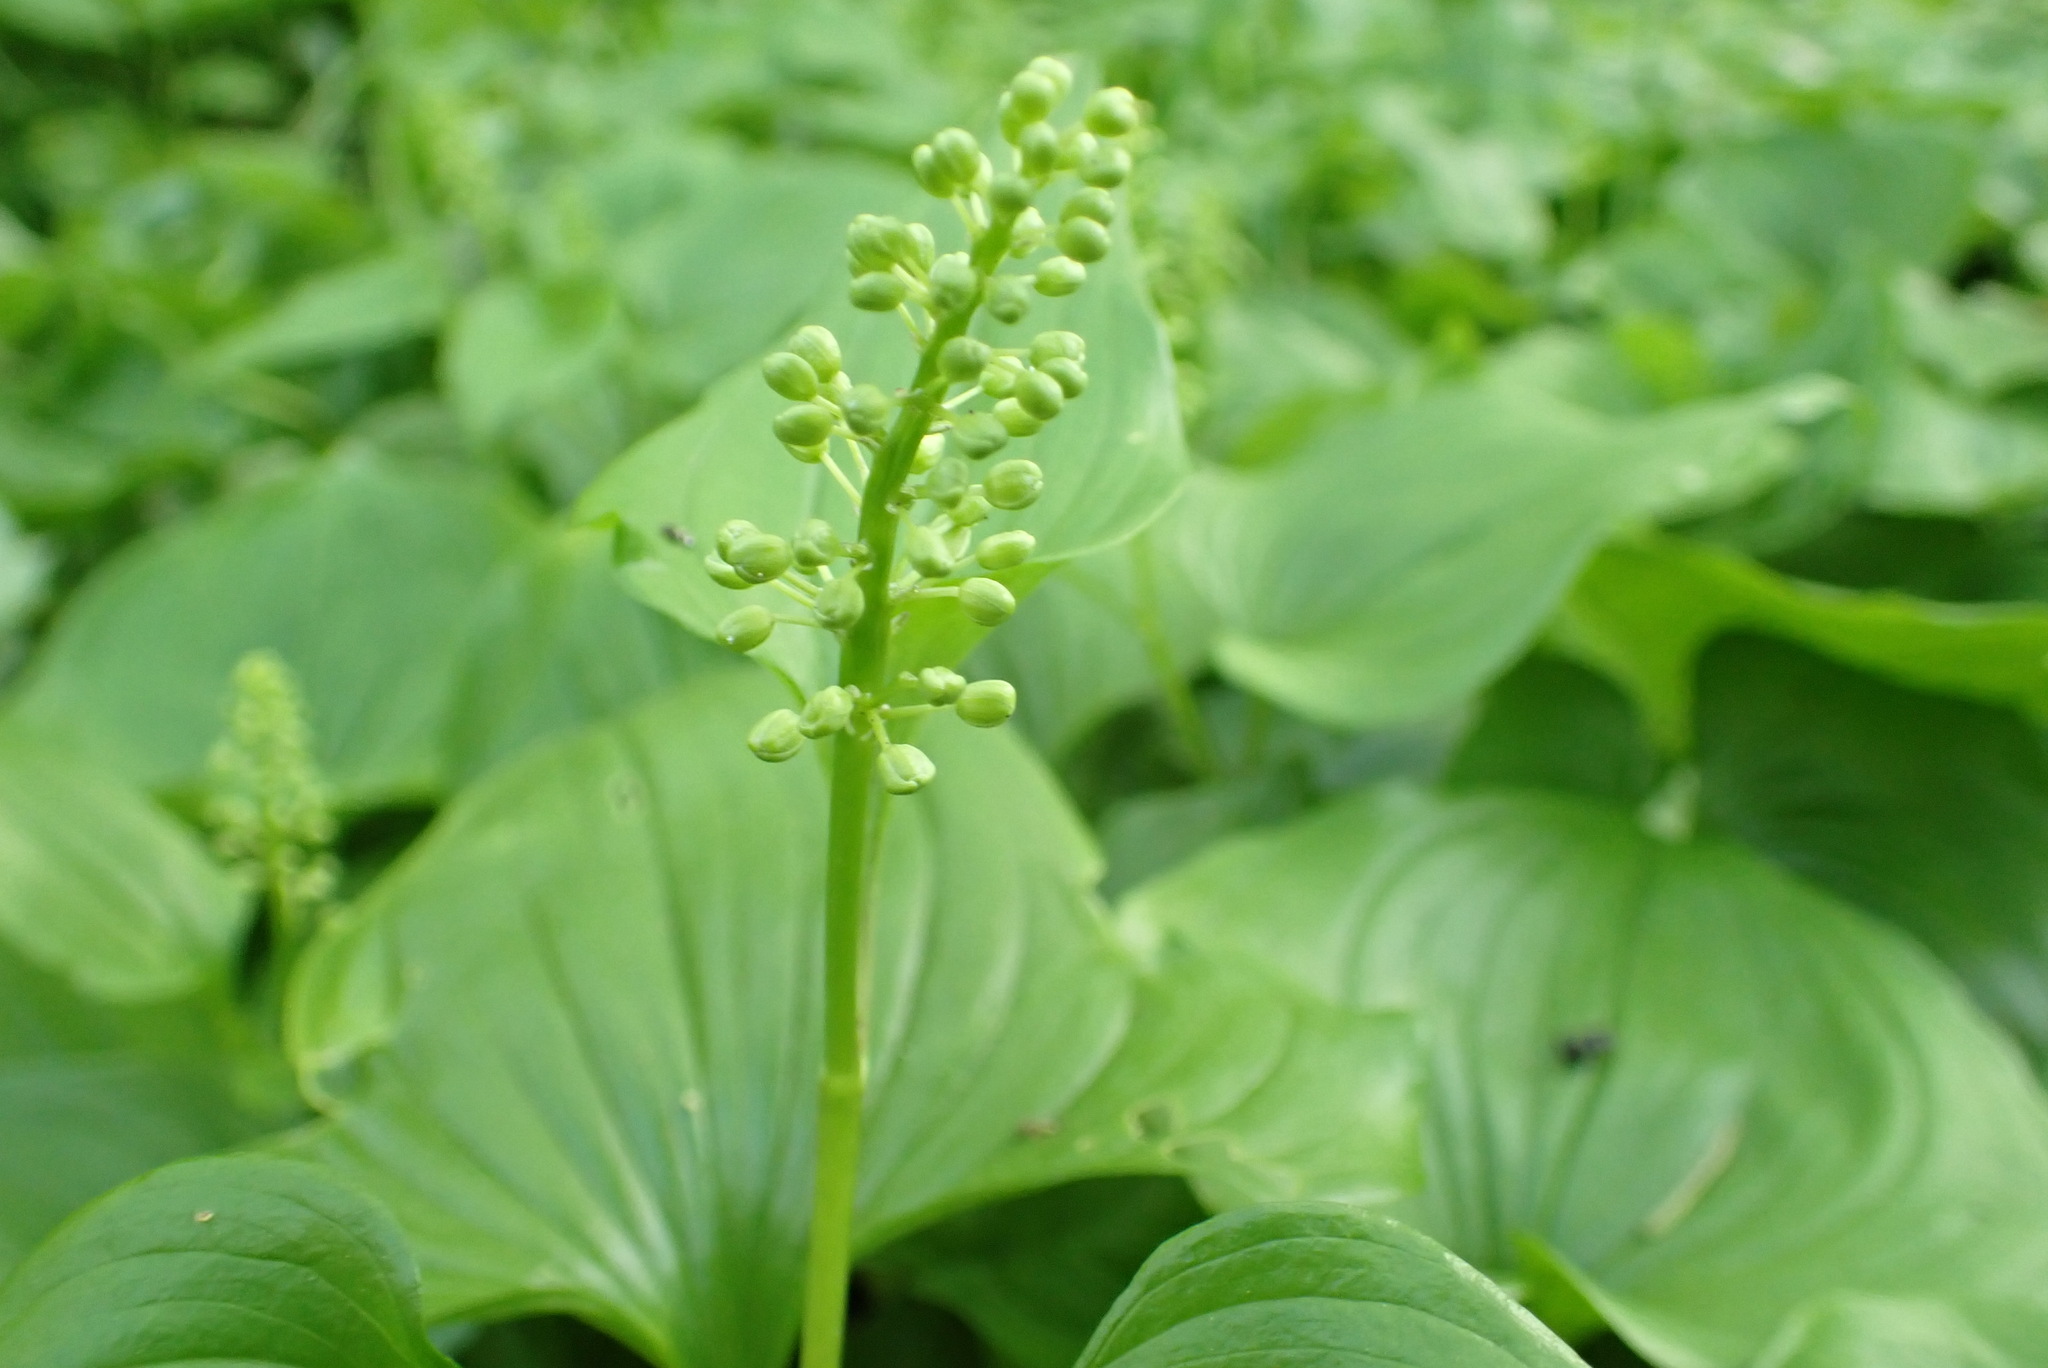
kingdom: Plantae
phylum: Tracheophyta
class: Liliopsida
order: Asparagales
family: Asparagaceae
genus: Maianthemum
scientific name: Maianthemum dilatatum
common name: False lily-of-the-valley
